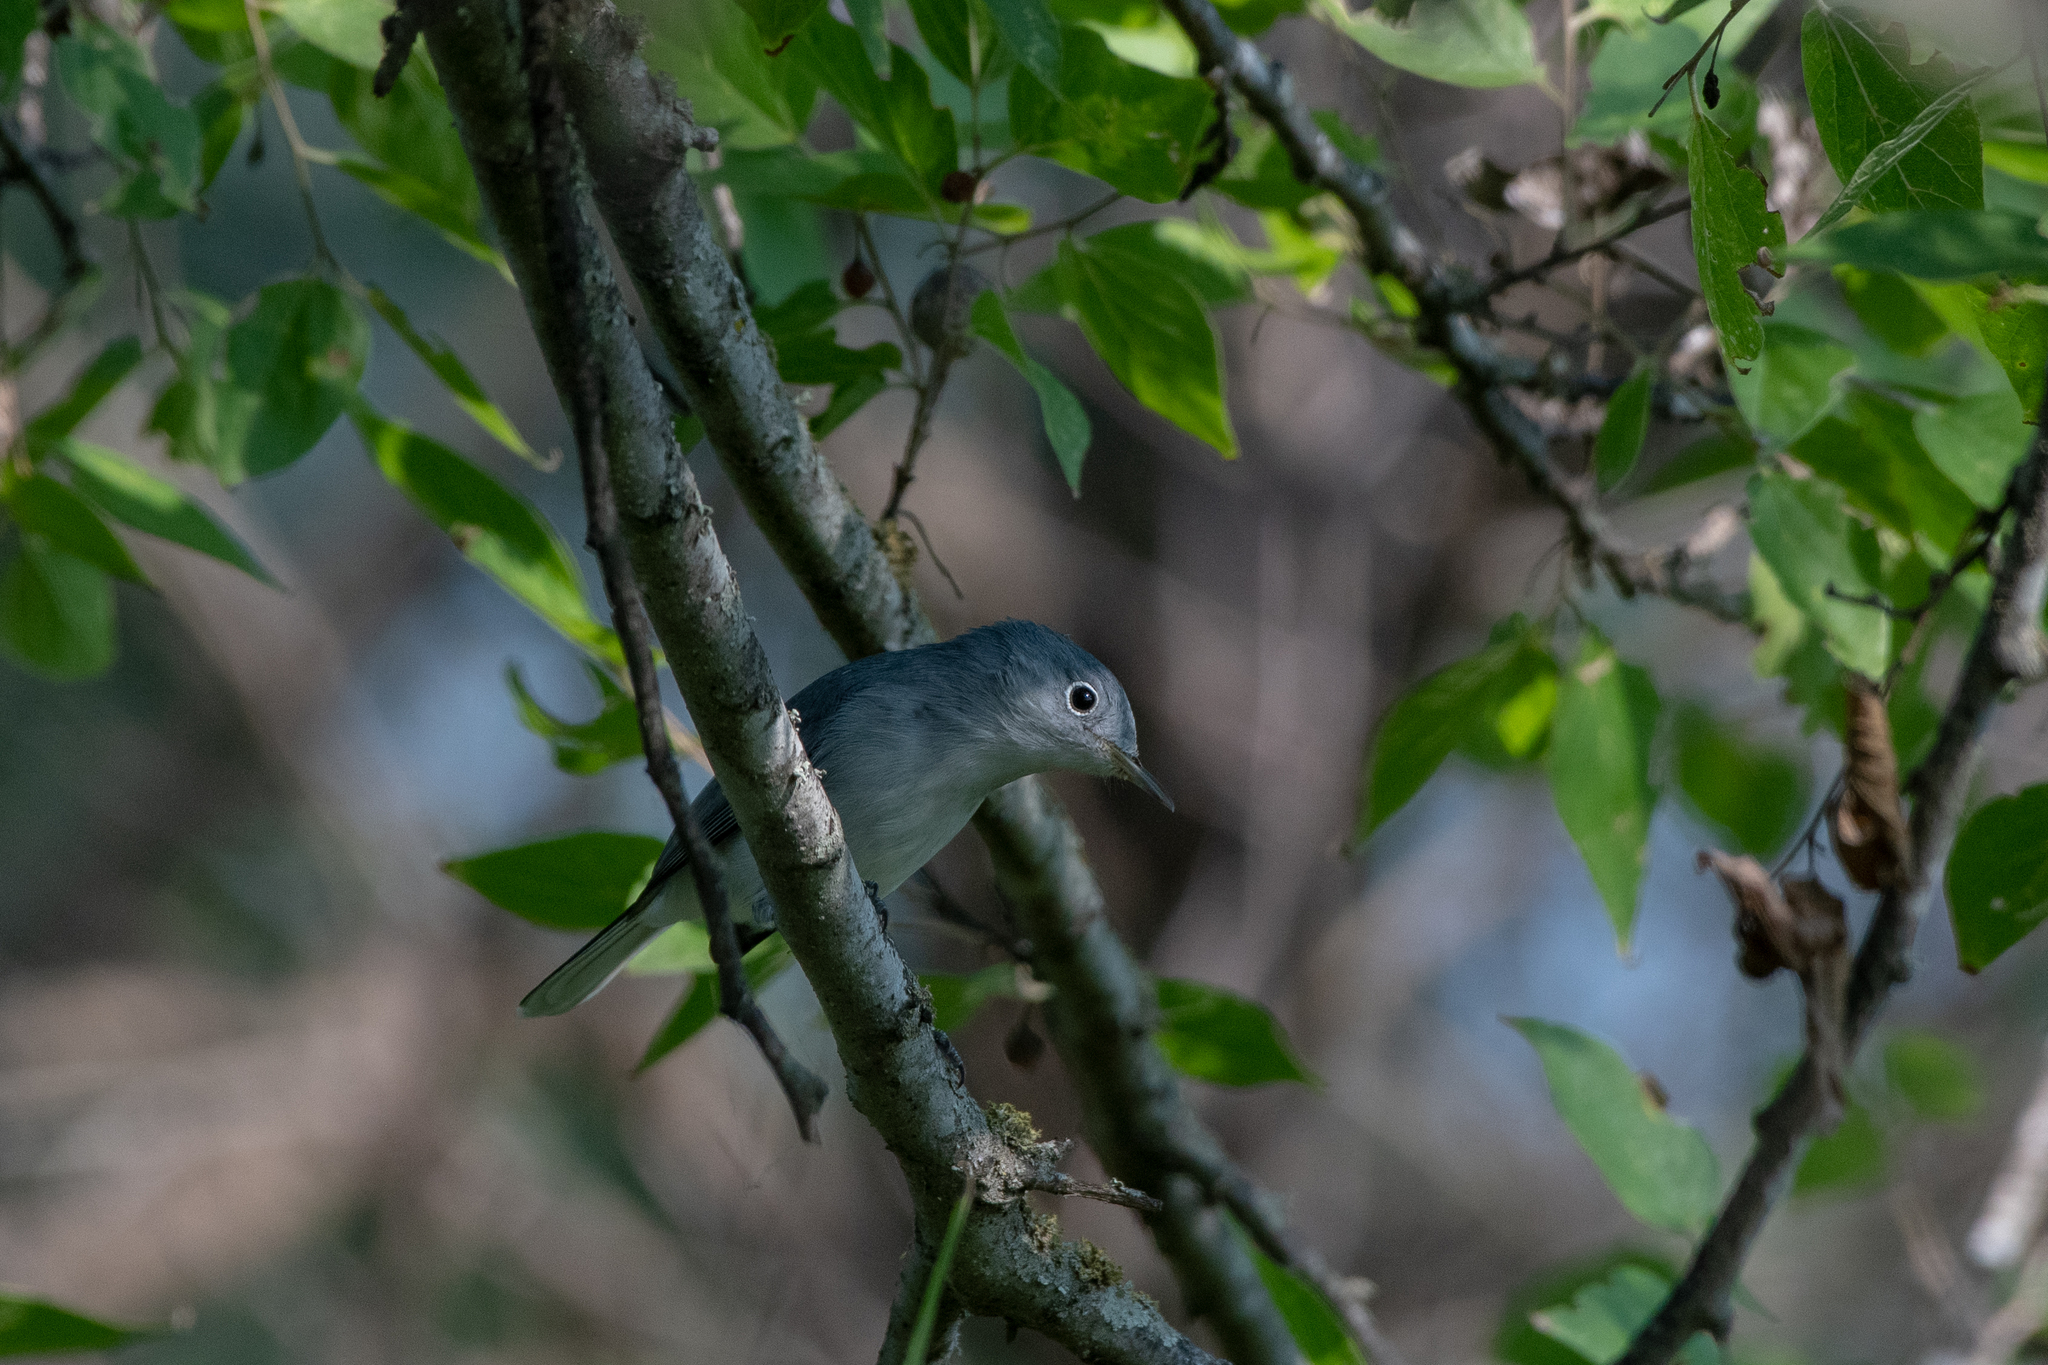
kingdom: Animalia
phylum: Chordata
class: Aves
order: Passeriformes
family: Polioptilidae
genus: Polioptila
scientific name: Polioptila caerulea
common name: Blue-gray gnatcatcher
